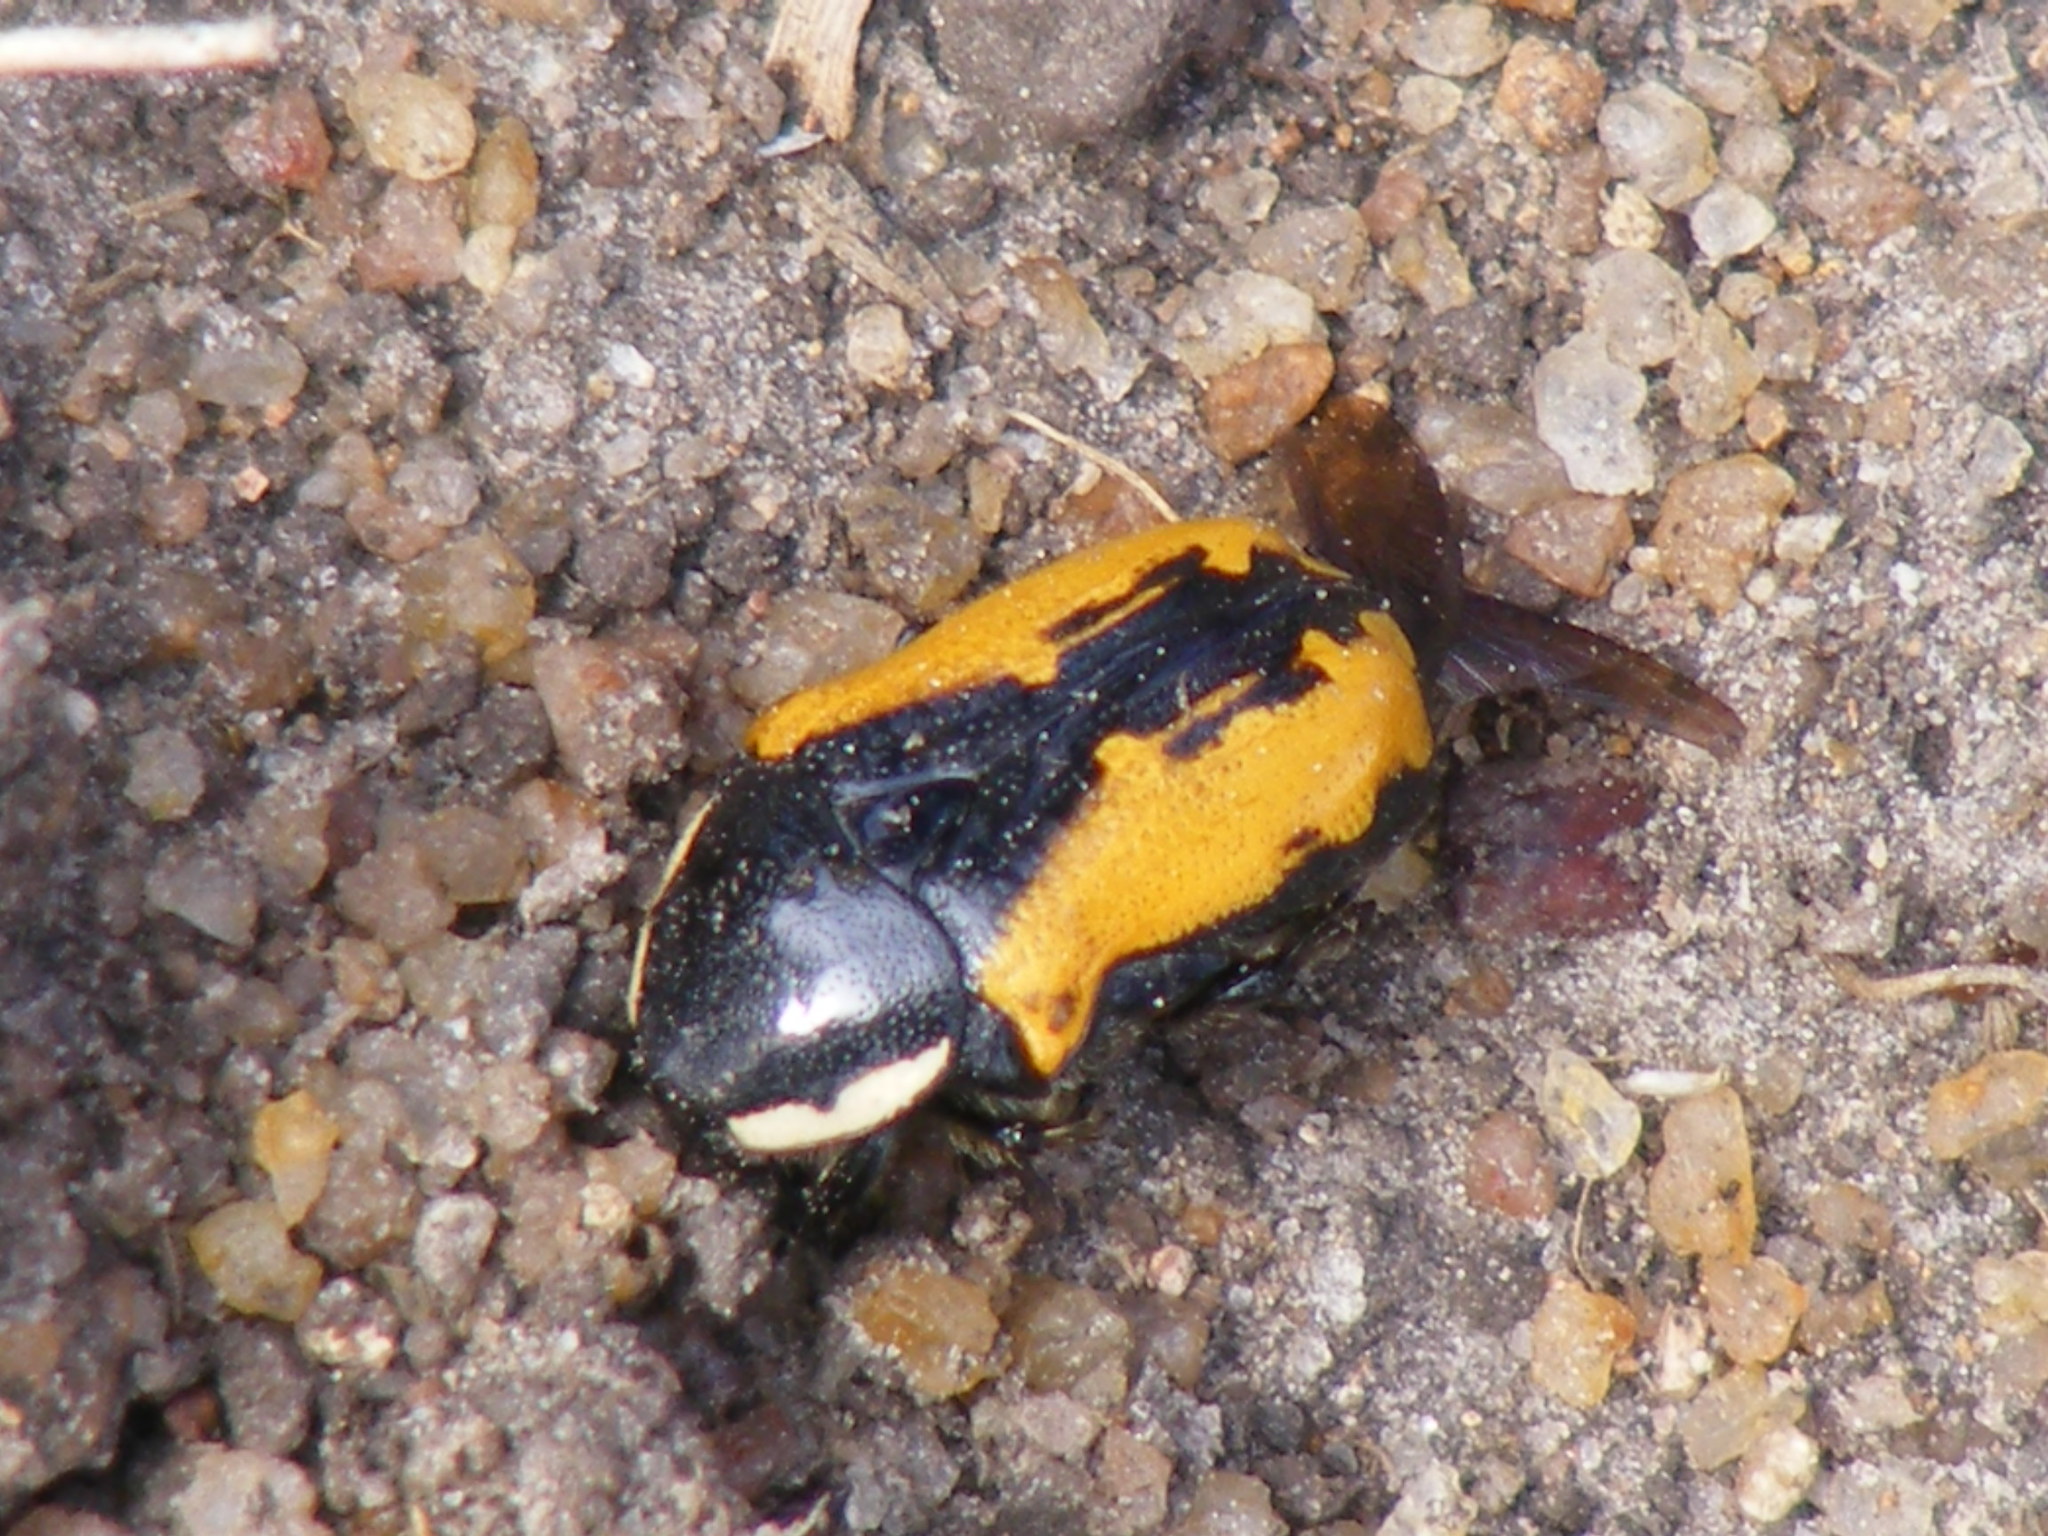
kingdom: Animalia
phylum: Arthropoda
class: Insecta
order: Coleoptera
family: Scarabaeidae
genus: Phoxomela
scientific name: Phoxomela umbrosa
